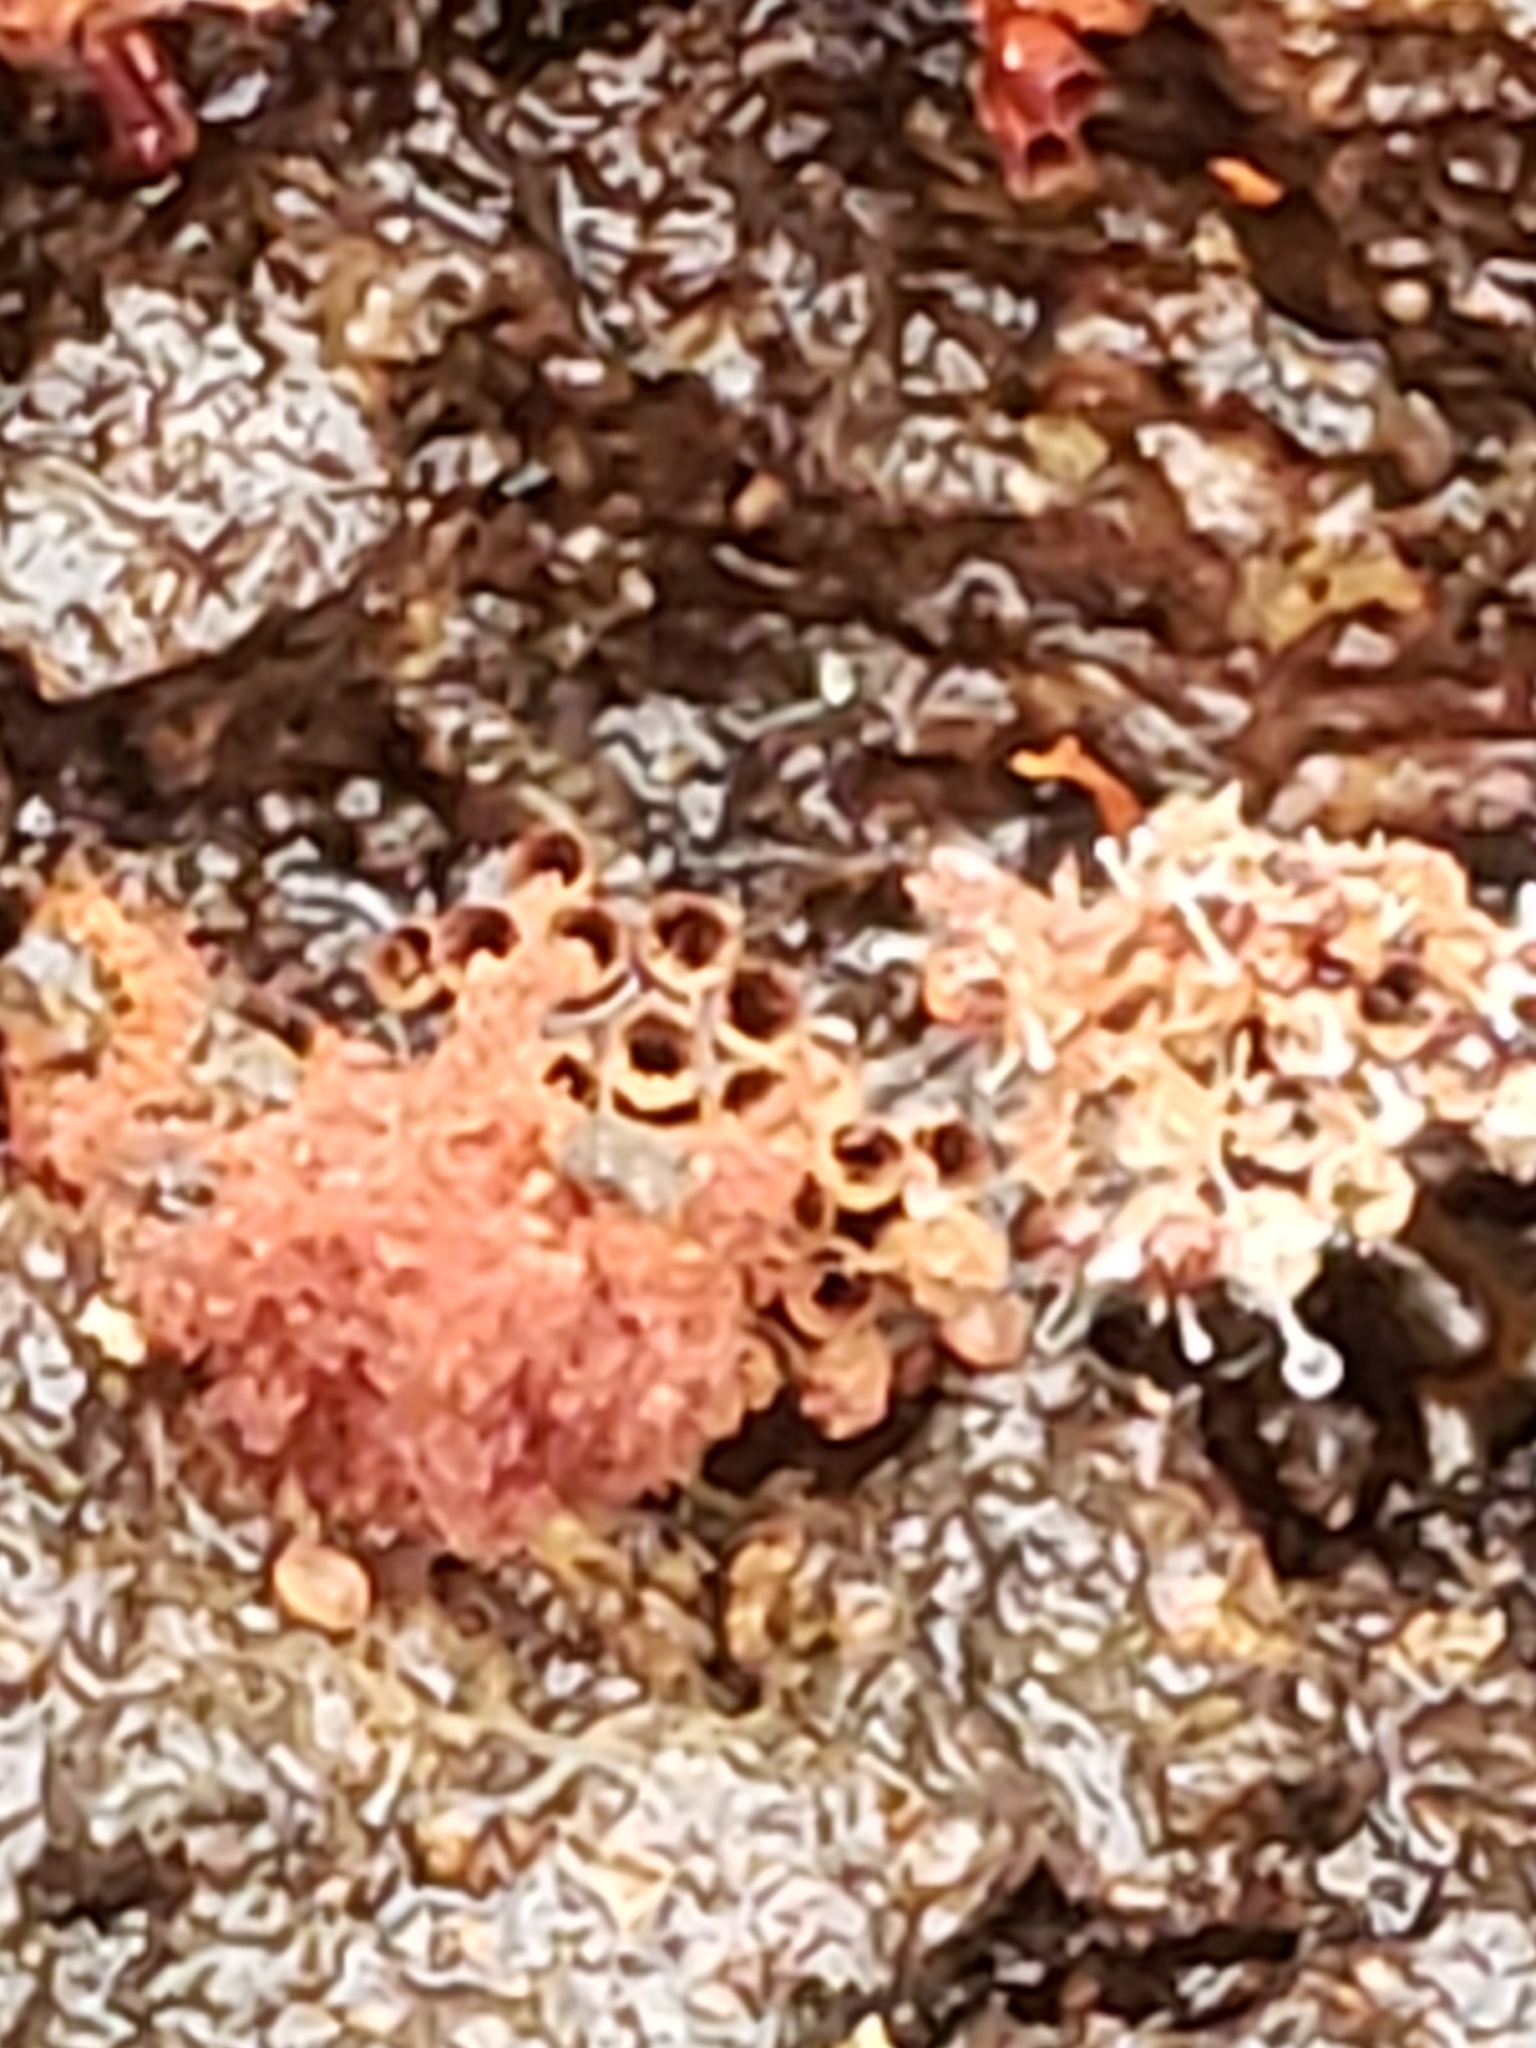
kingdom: Fungi
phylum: Ascomycota
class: Sordariomycetes
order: Hypocreales
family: Ophiocordycipitaceae
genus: Polycephalomyces
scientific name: Polycephalomyces tomentosus
